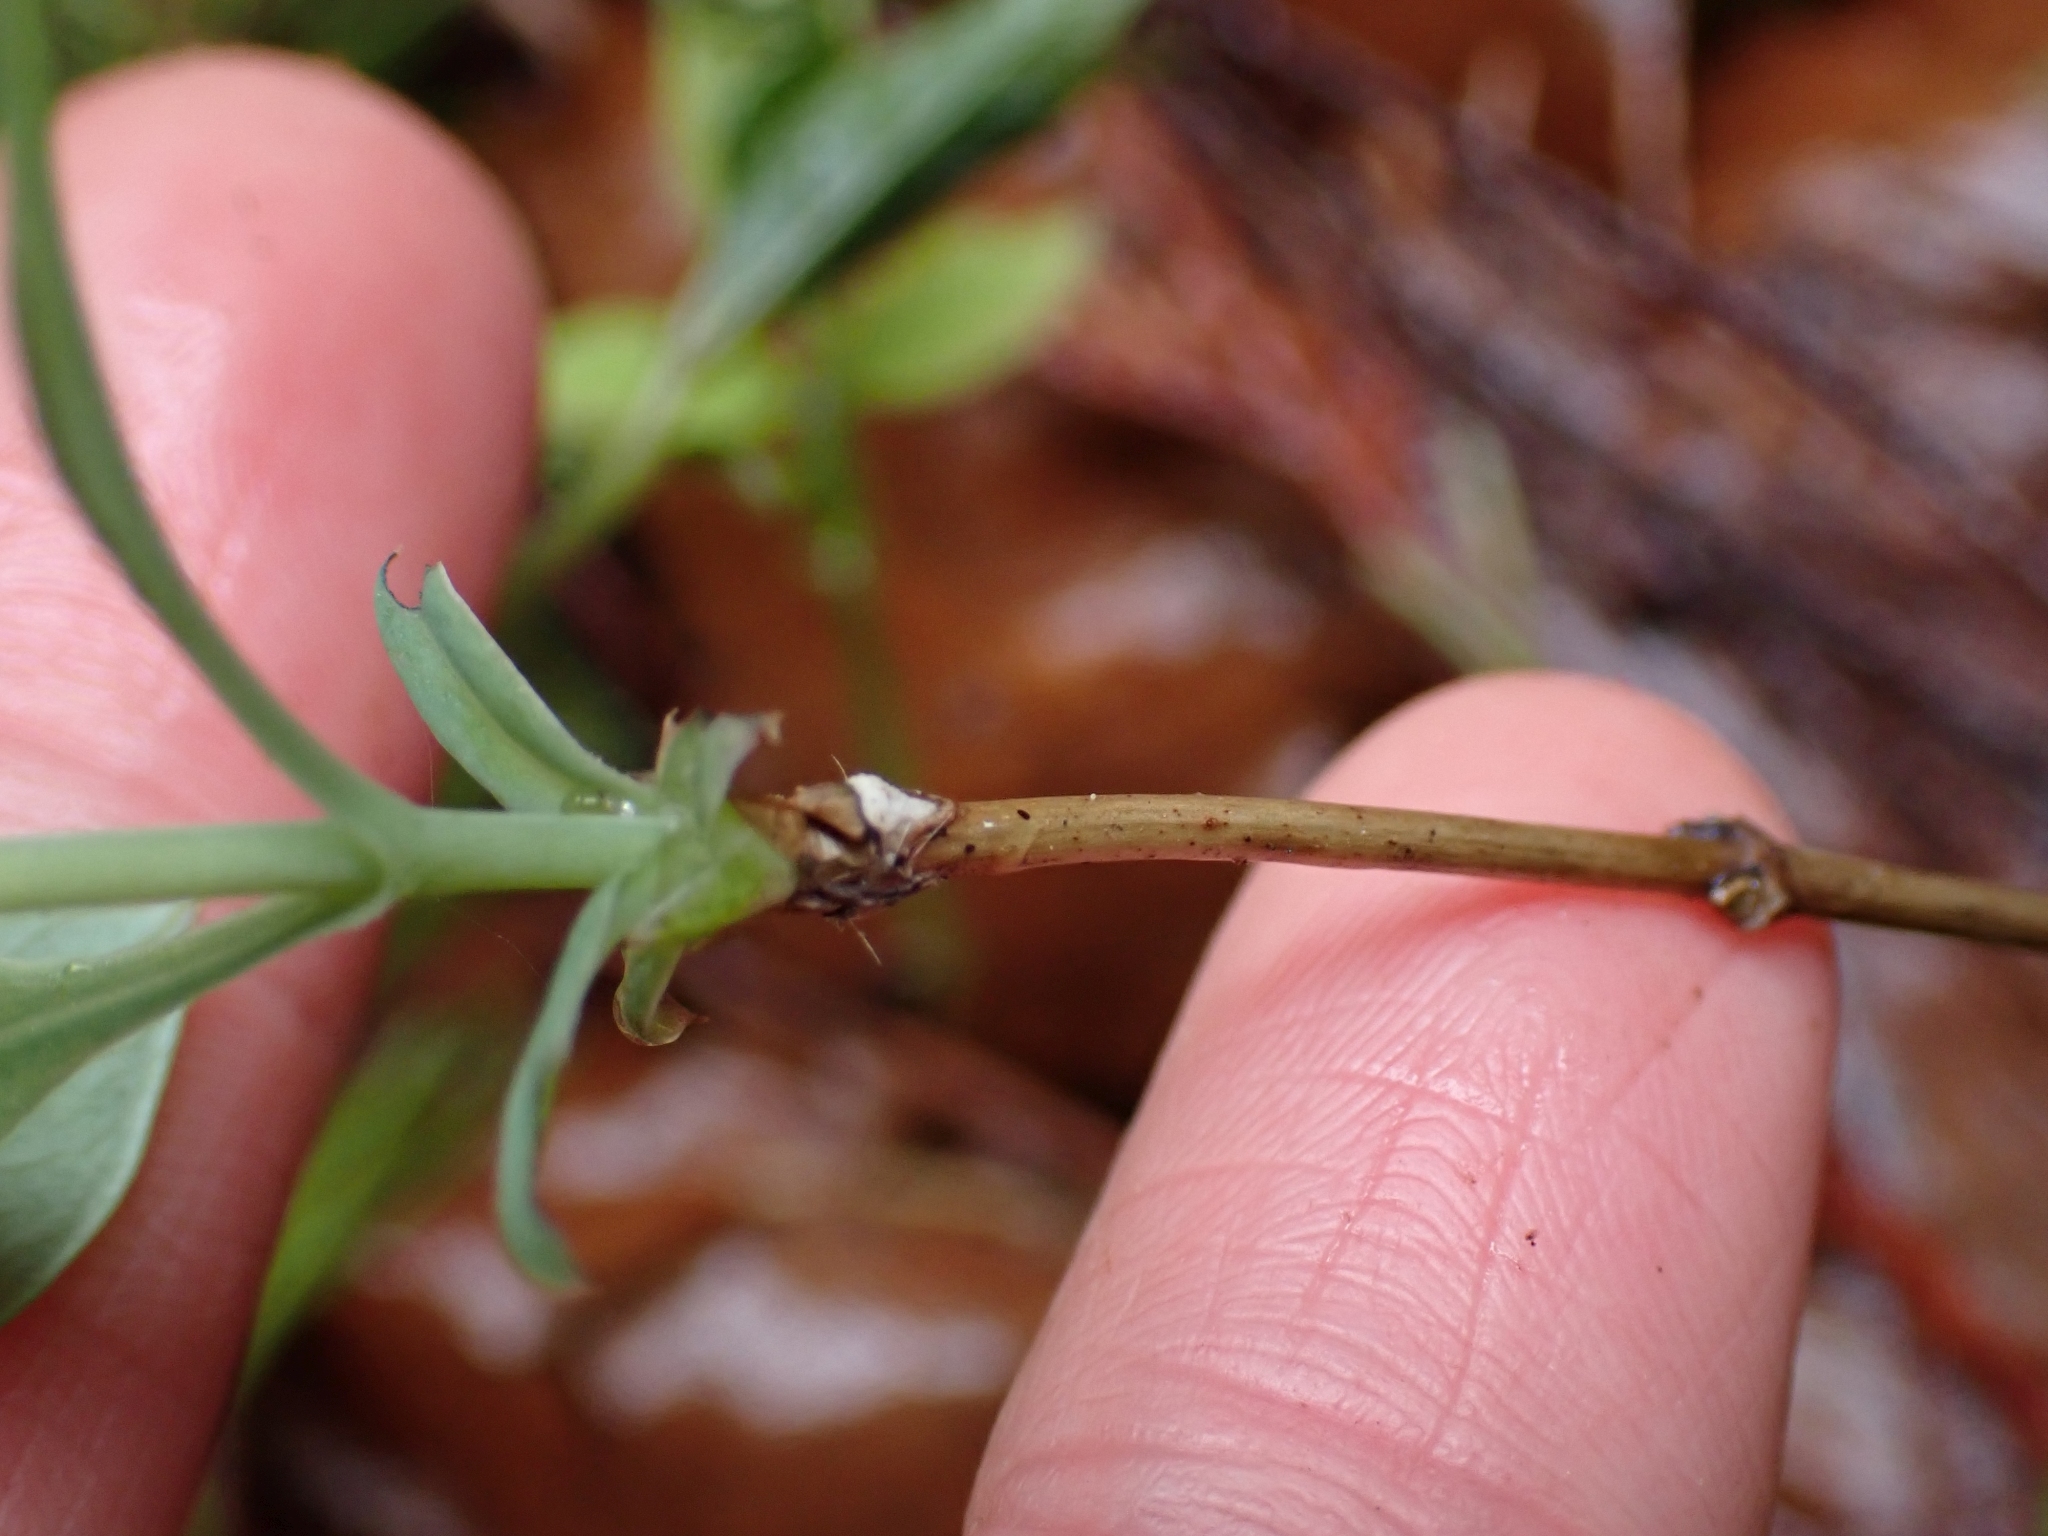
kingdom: Plantae
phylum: Tracheophyta
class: Magnoliopsida
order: Dipsacales
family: Caprifoliaceae
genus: Lonicera
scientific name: Lonicera ciliosa
